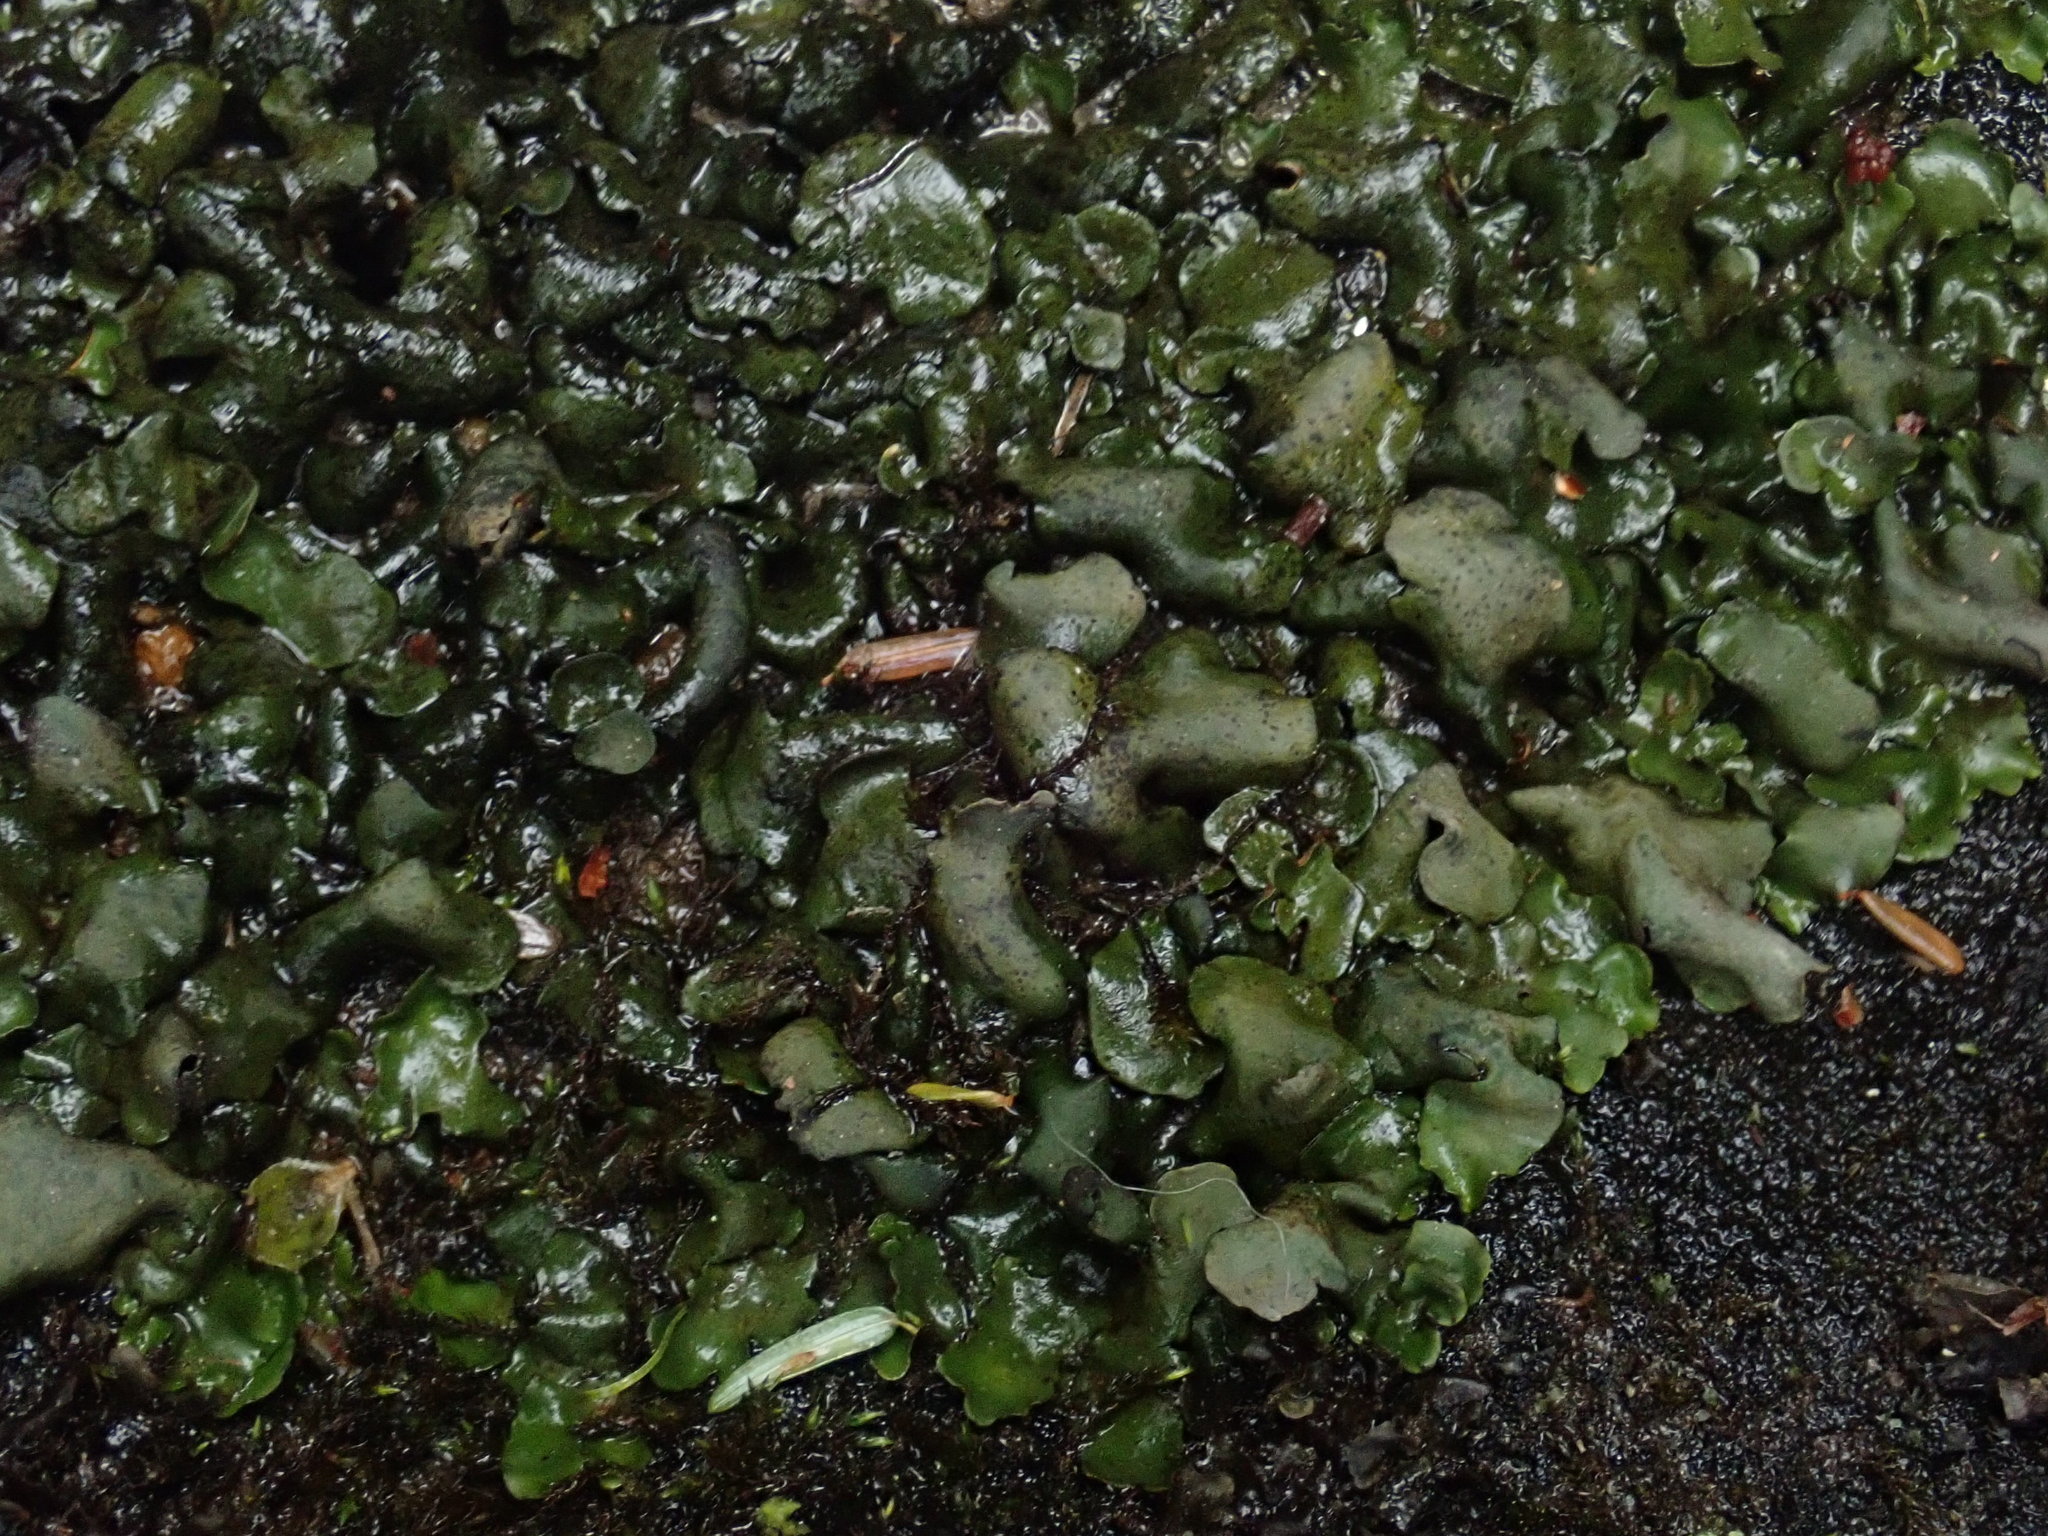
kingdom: Fungi
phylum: Ascomycota
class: Eurotiomycetes
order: Verrucariales
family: Verrucariaceae
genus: Dermatocarpon
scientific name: Dermatocarpon luridum
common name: Brook stippleback lichen
